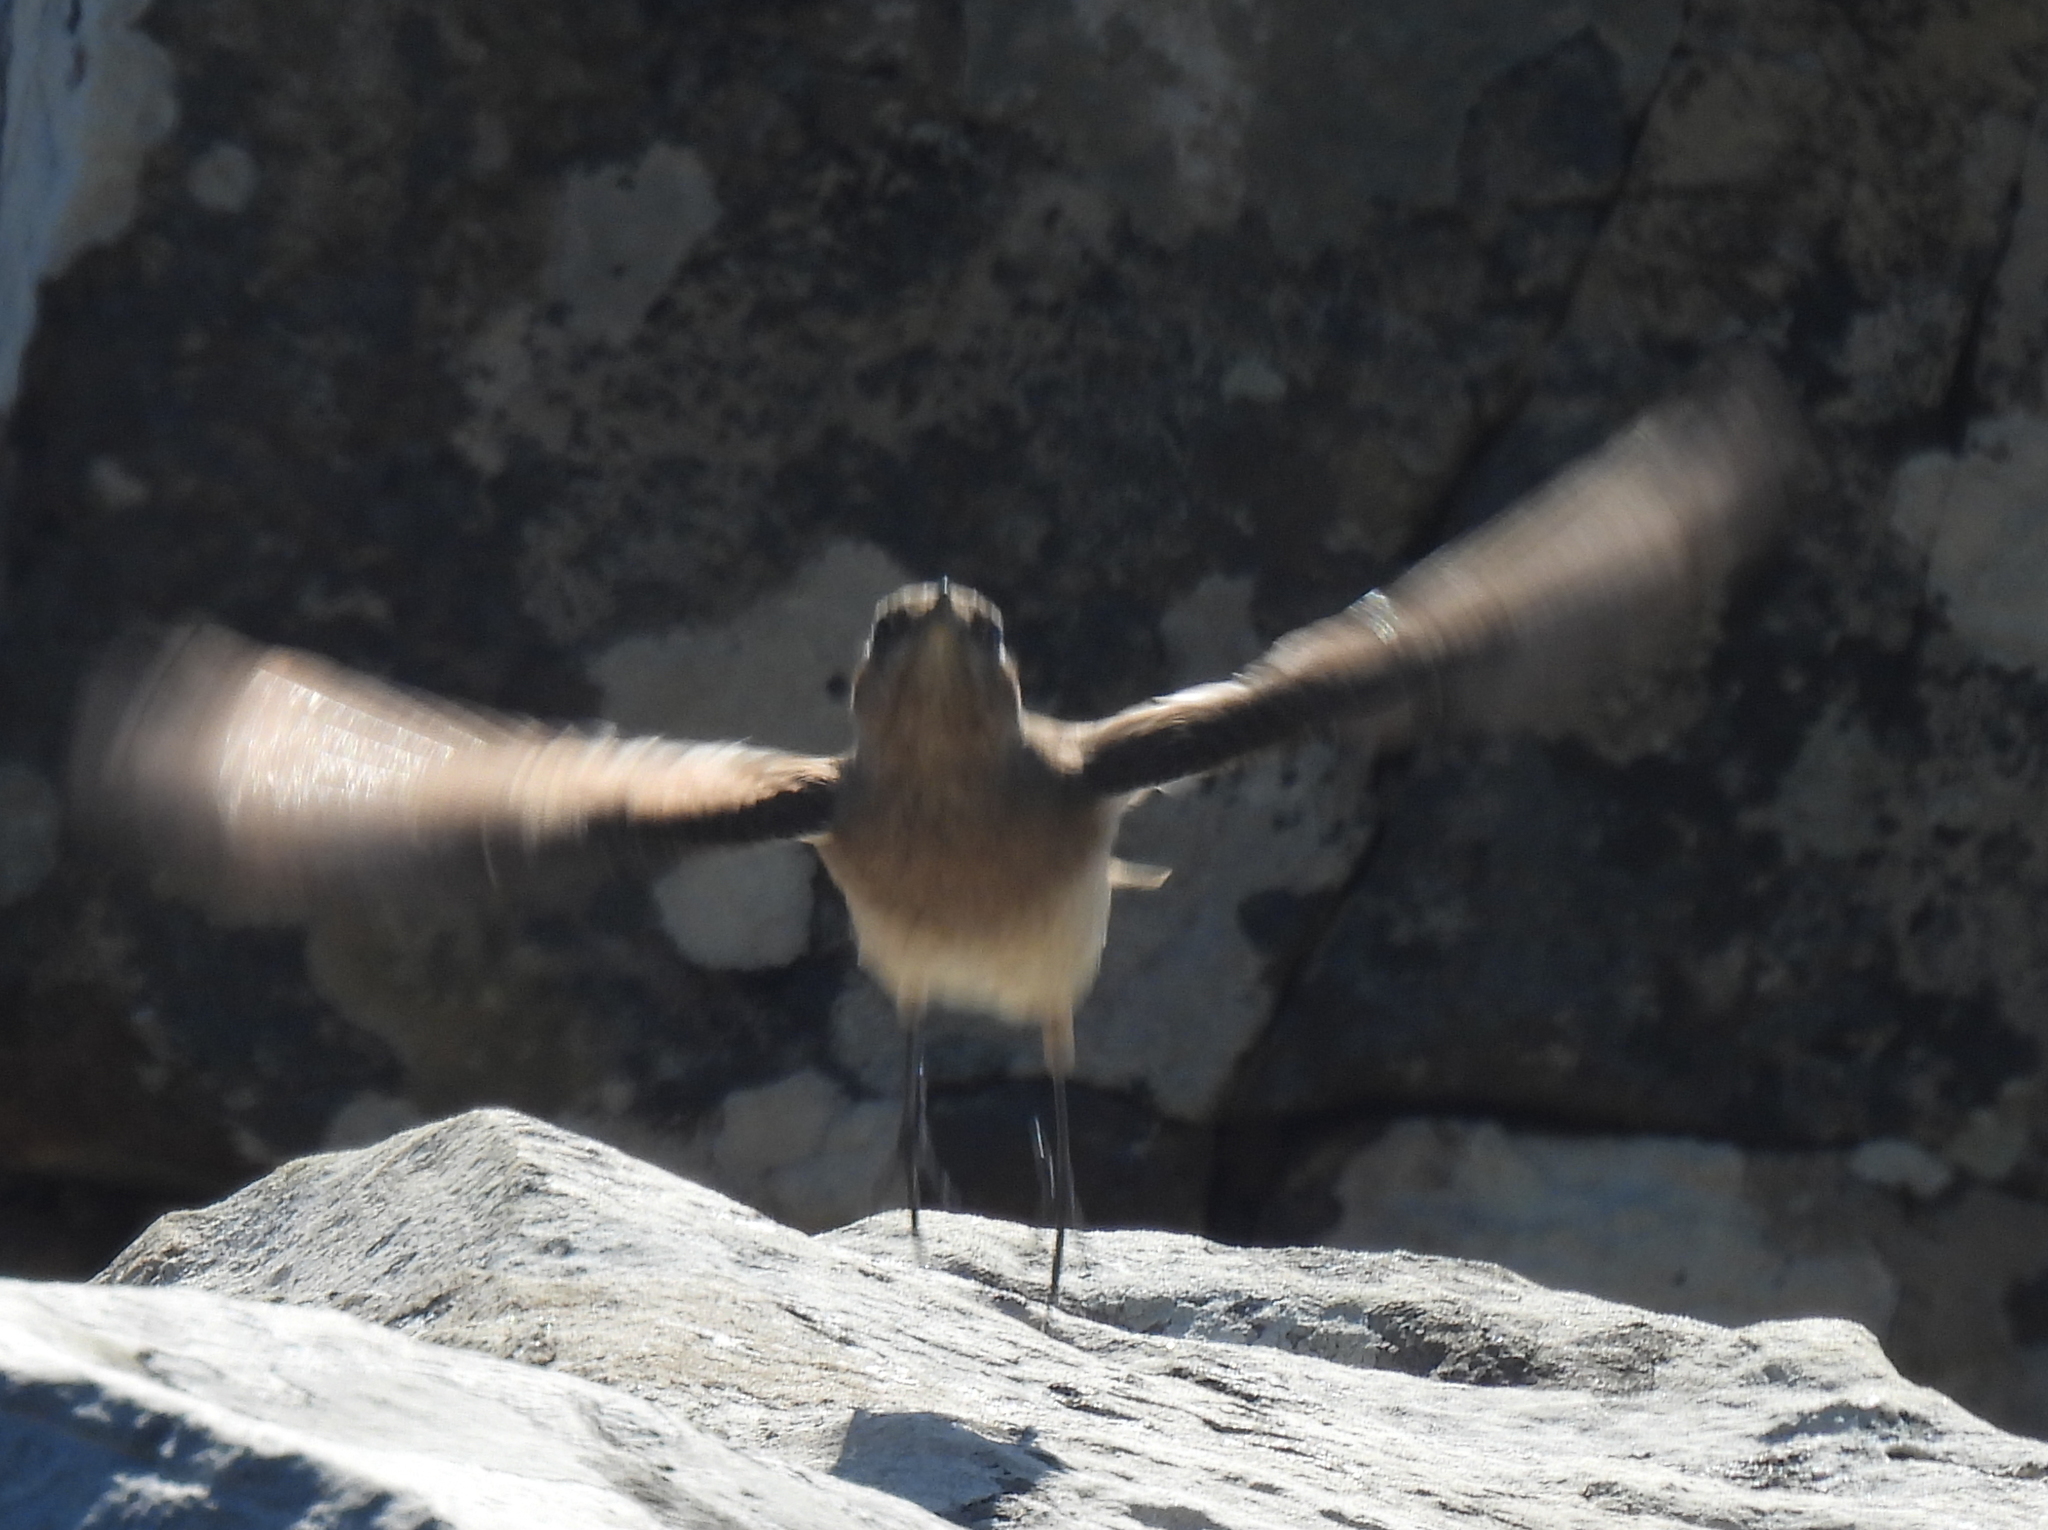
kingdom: Animalia
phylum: Chordata
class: Aves
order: Passeriformes
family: Muscicapidae
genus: Oenanthe
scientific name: Oenanthe familiaris
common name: Familiar chat
